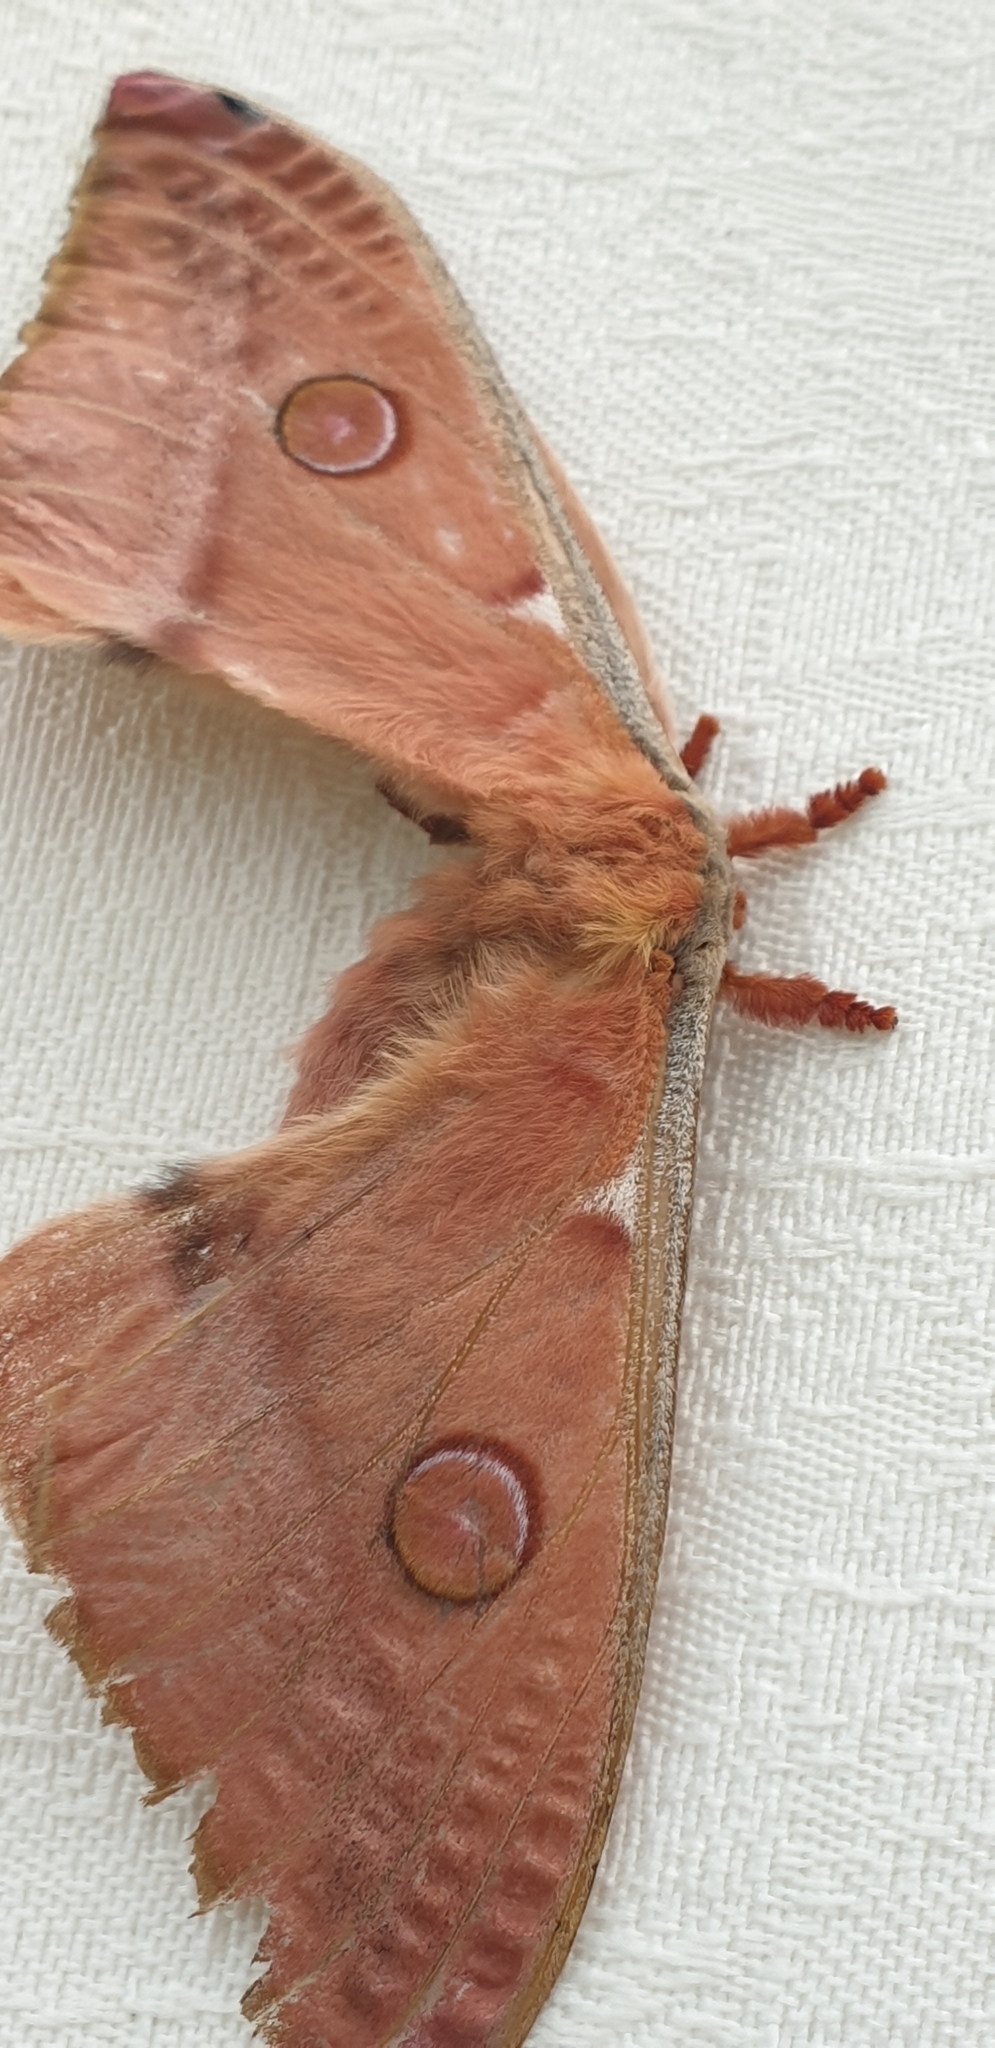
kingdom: Animalia
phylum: Arthropoda
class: Insecta
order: Lepidoptera
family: Saturniidae
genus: Opodiphthera
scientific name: Opodiphthera
